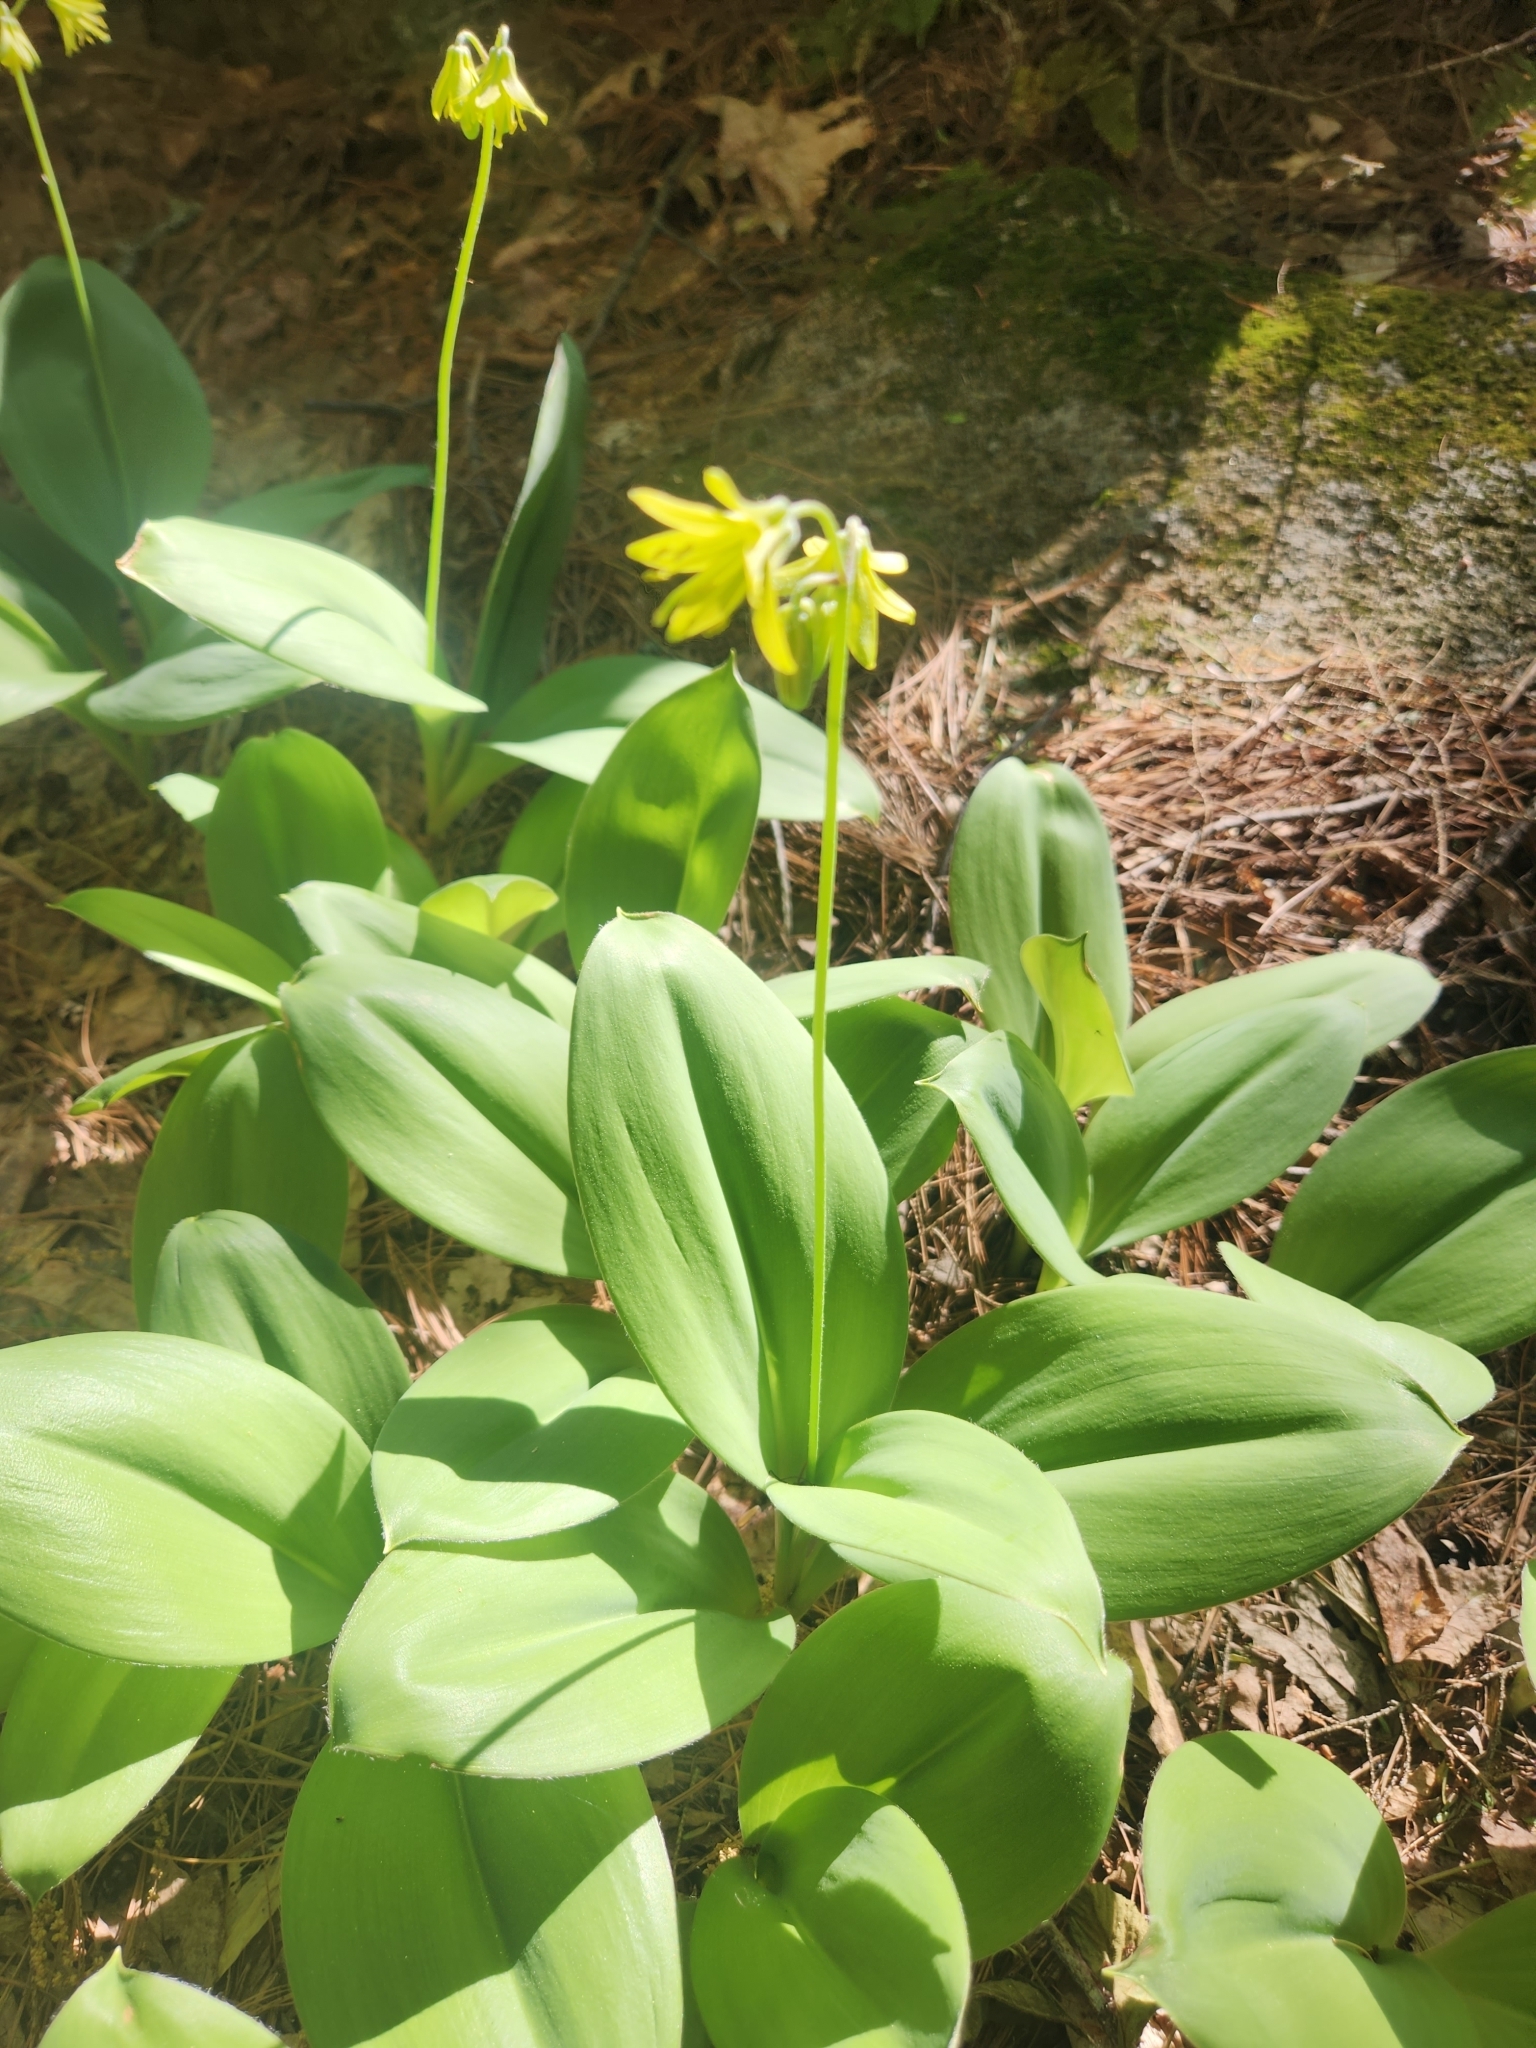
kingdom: Plantae
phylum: Tracheophyta
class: Liliopsida
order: Liliales
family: Liliaceae
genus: Clintonia
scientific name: Clintonia borealis
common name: Yellow clintonia
